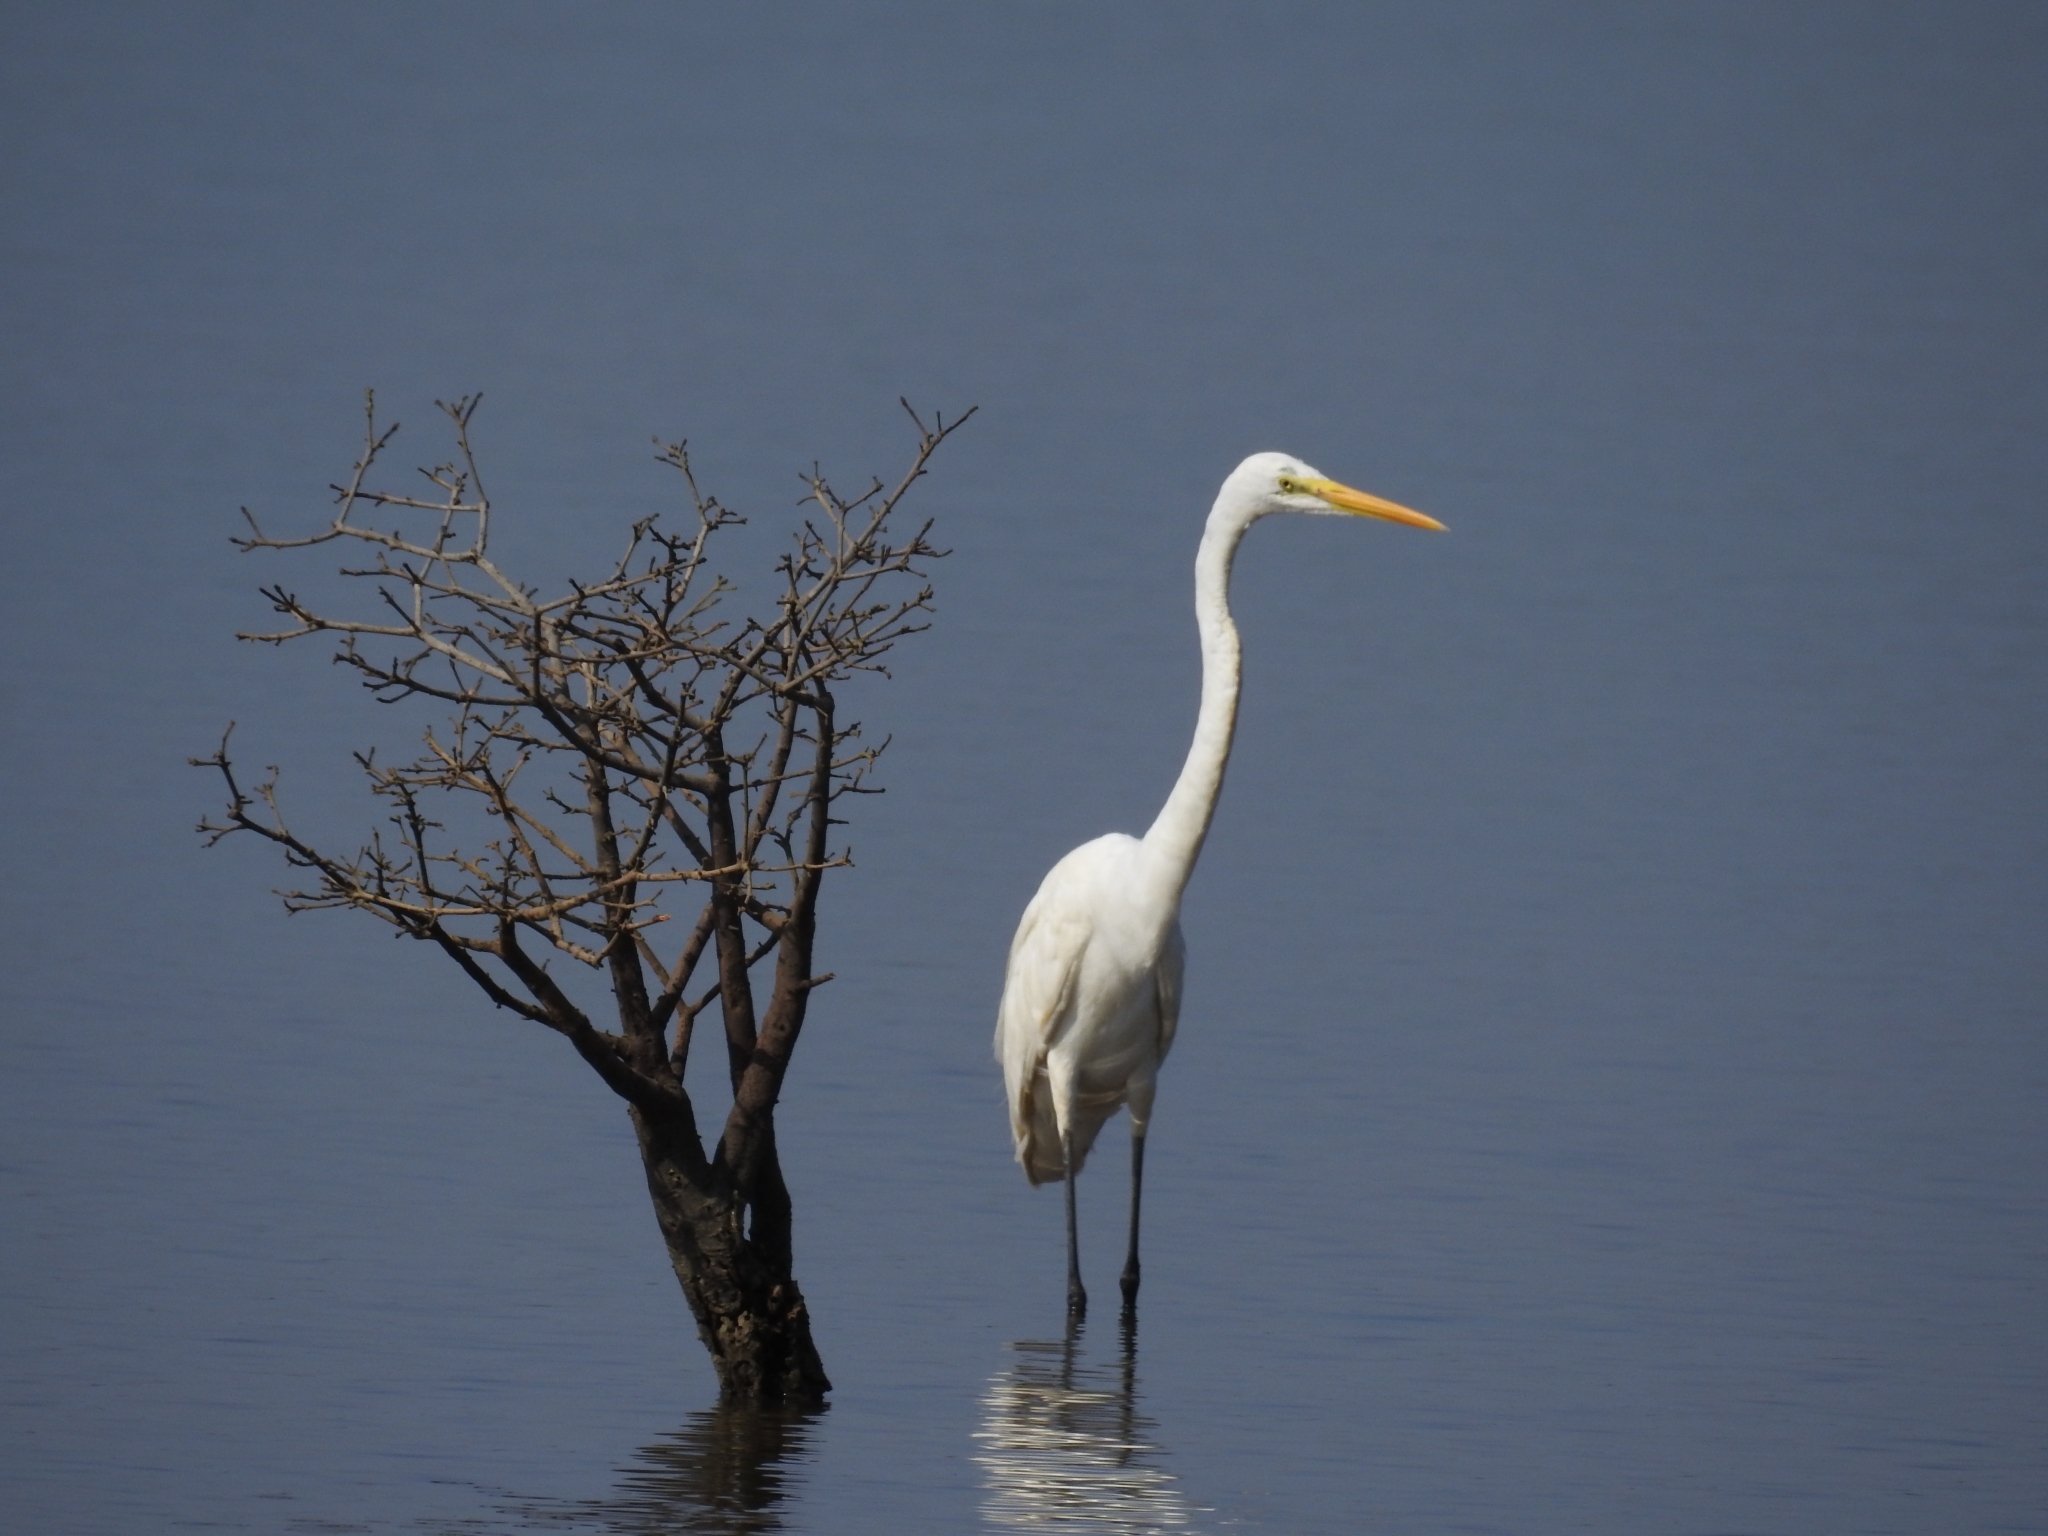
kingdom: Animalia
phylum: Chordata
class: Aves
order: Pelecaniformes
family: Ardeidae
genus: Ardea
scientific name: Ardea alba
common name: Great egret
